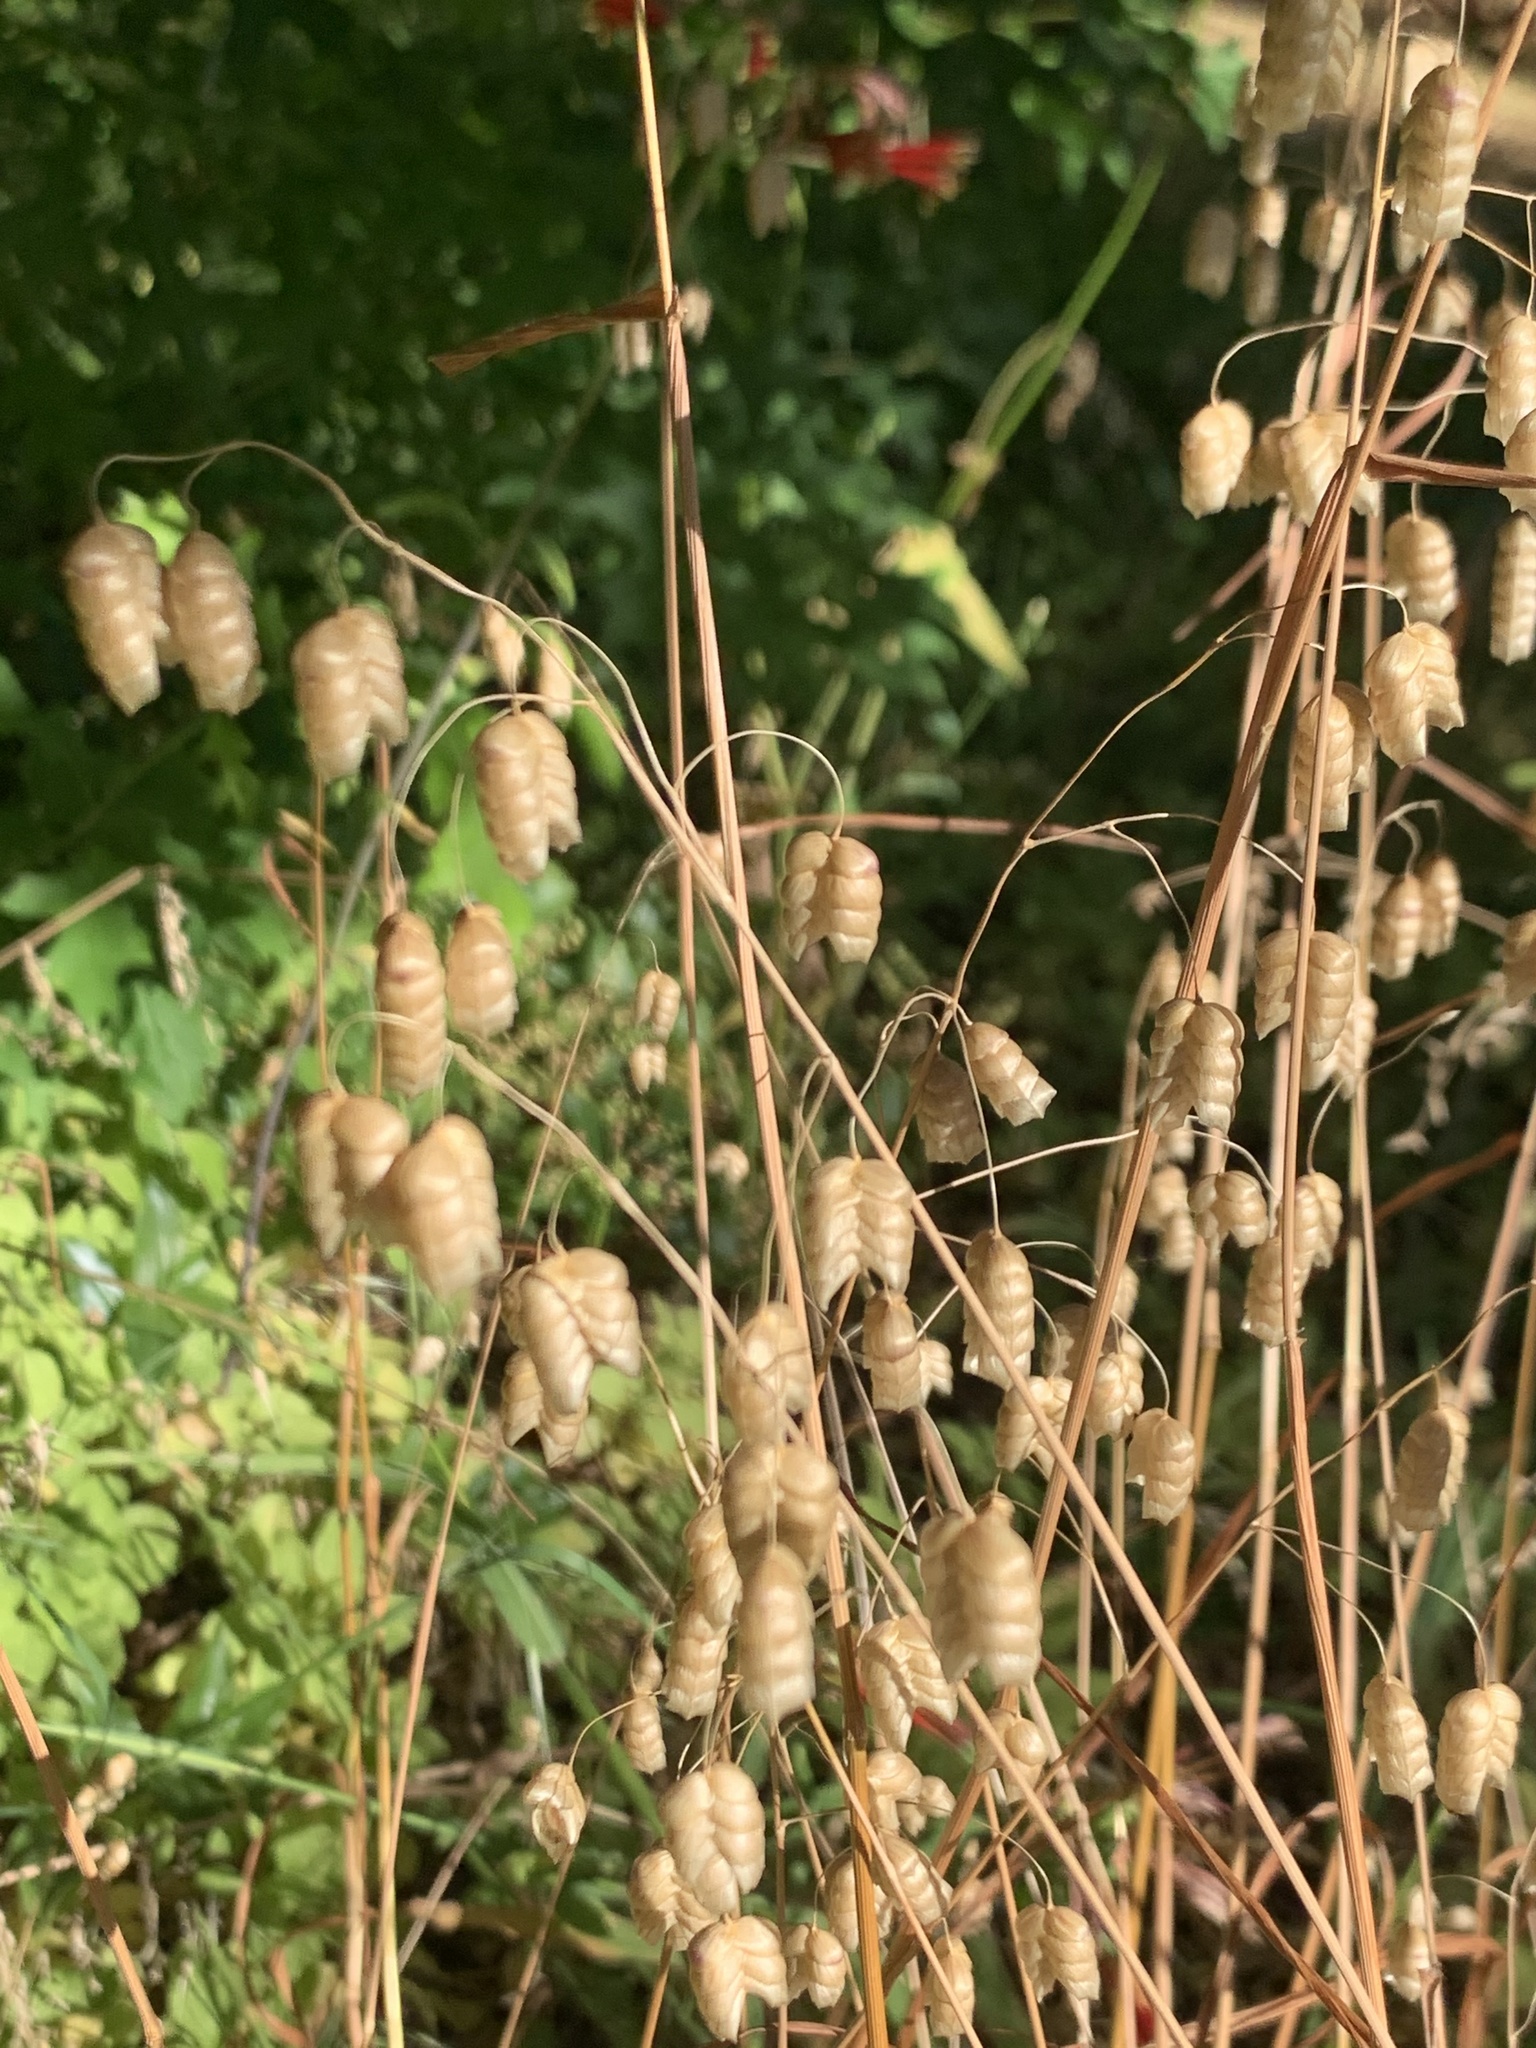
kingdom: Plantae
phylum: Tracheophyta
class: Liliopsida
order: Poales
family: Poaceae
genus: Briza
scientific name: Briza maxima
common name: Big quakinggrass
